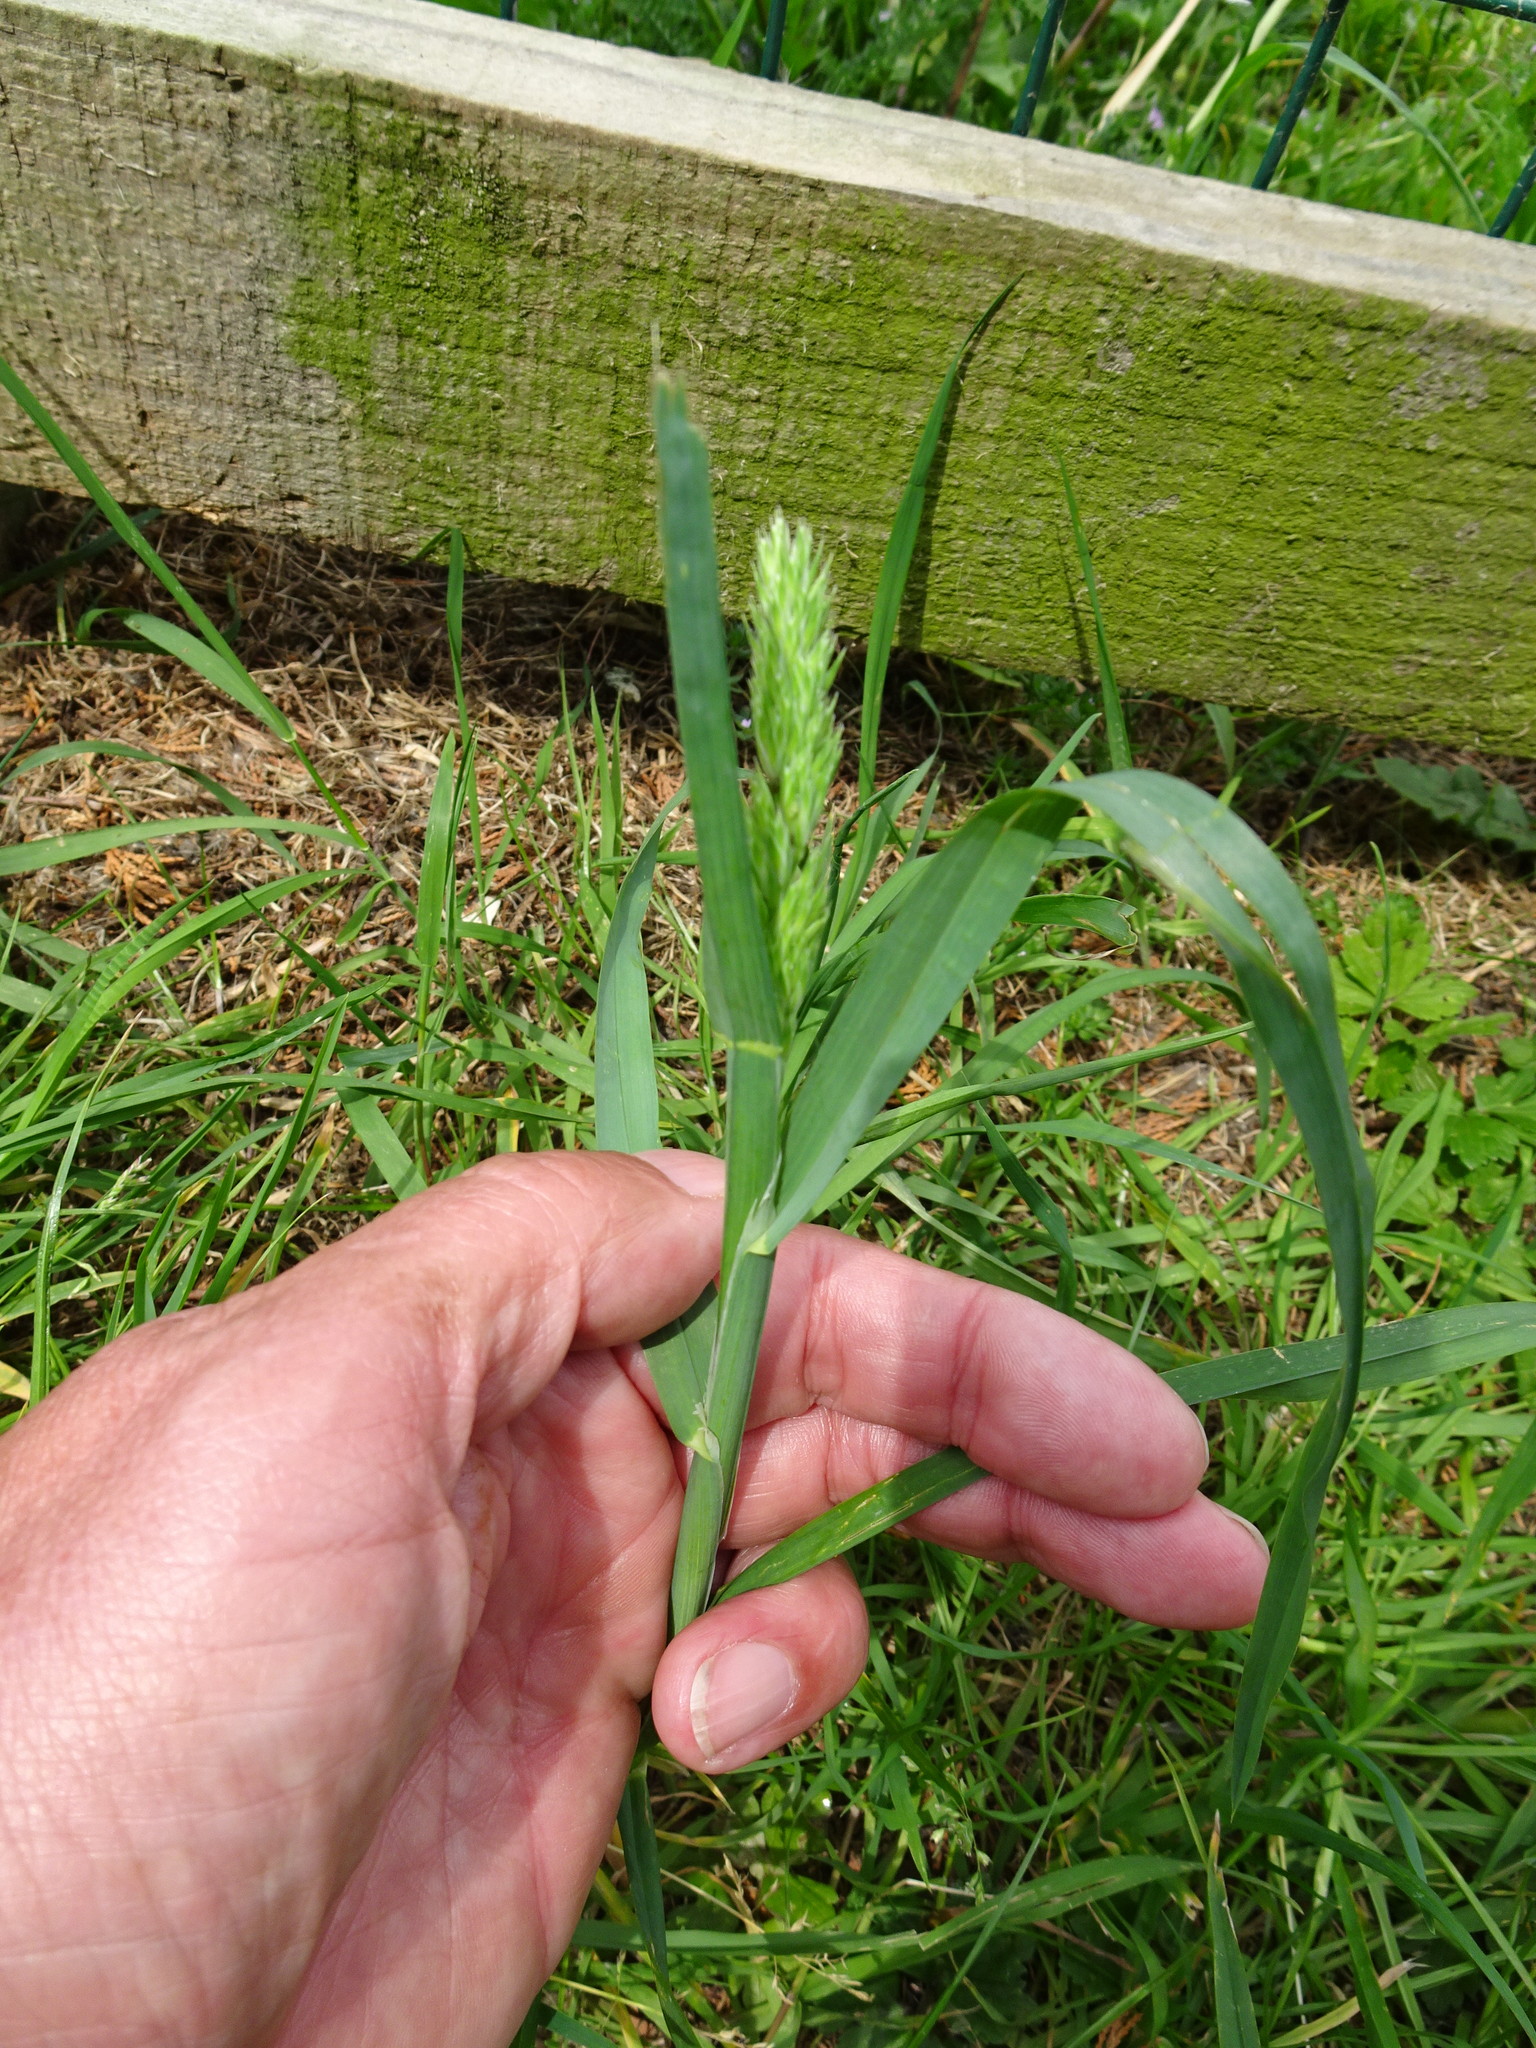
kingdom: Plantae
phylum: Tracheophyta
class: Liliopsida
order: Poales
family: Poaceae
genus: Dactylis
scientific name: Dactylis glomerata
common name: Orchardgrass
